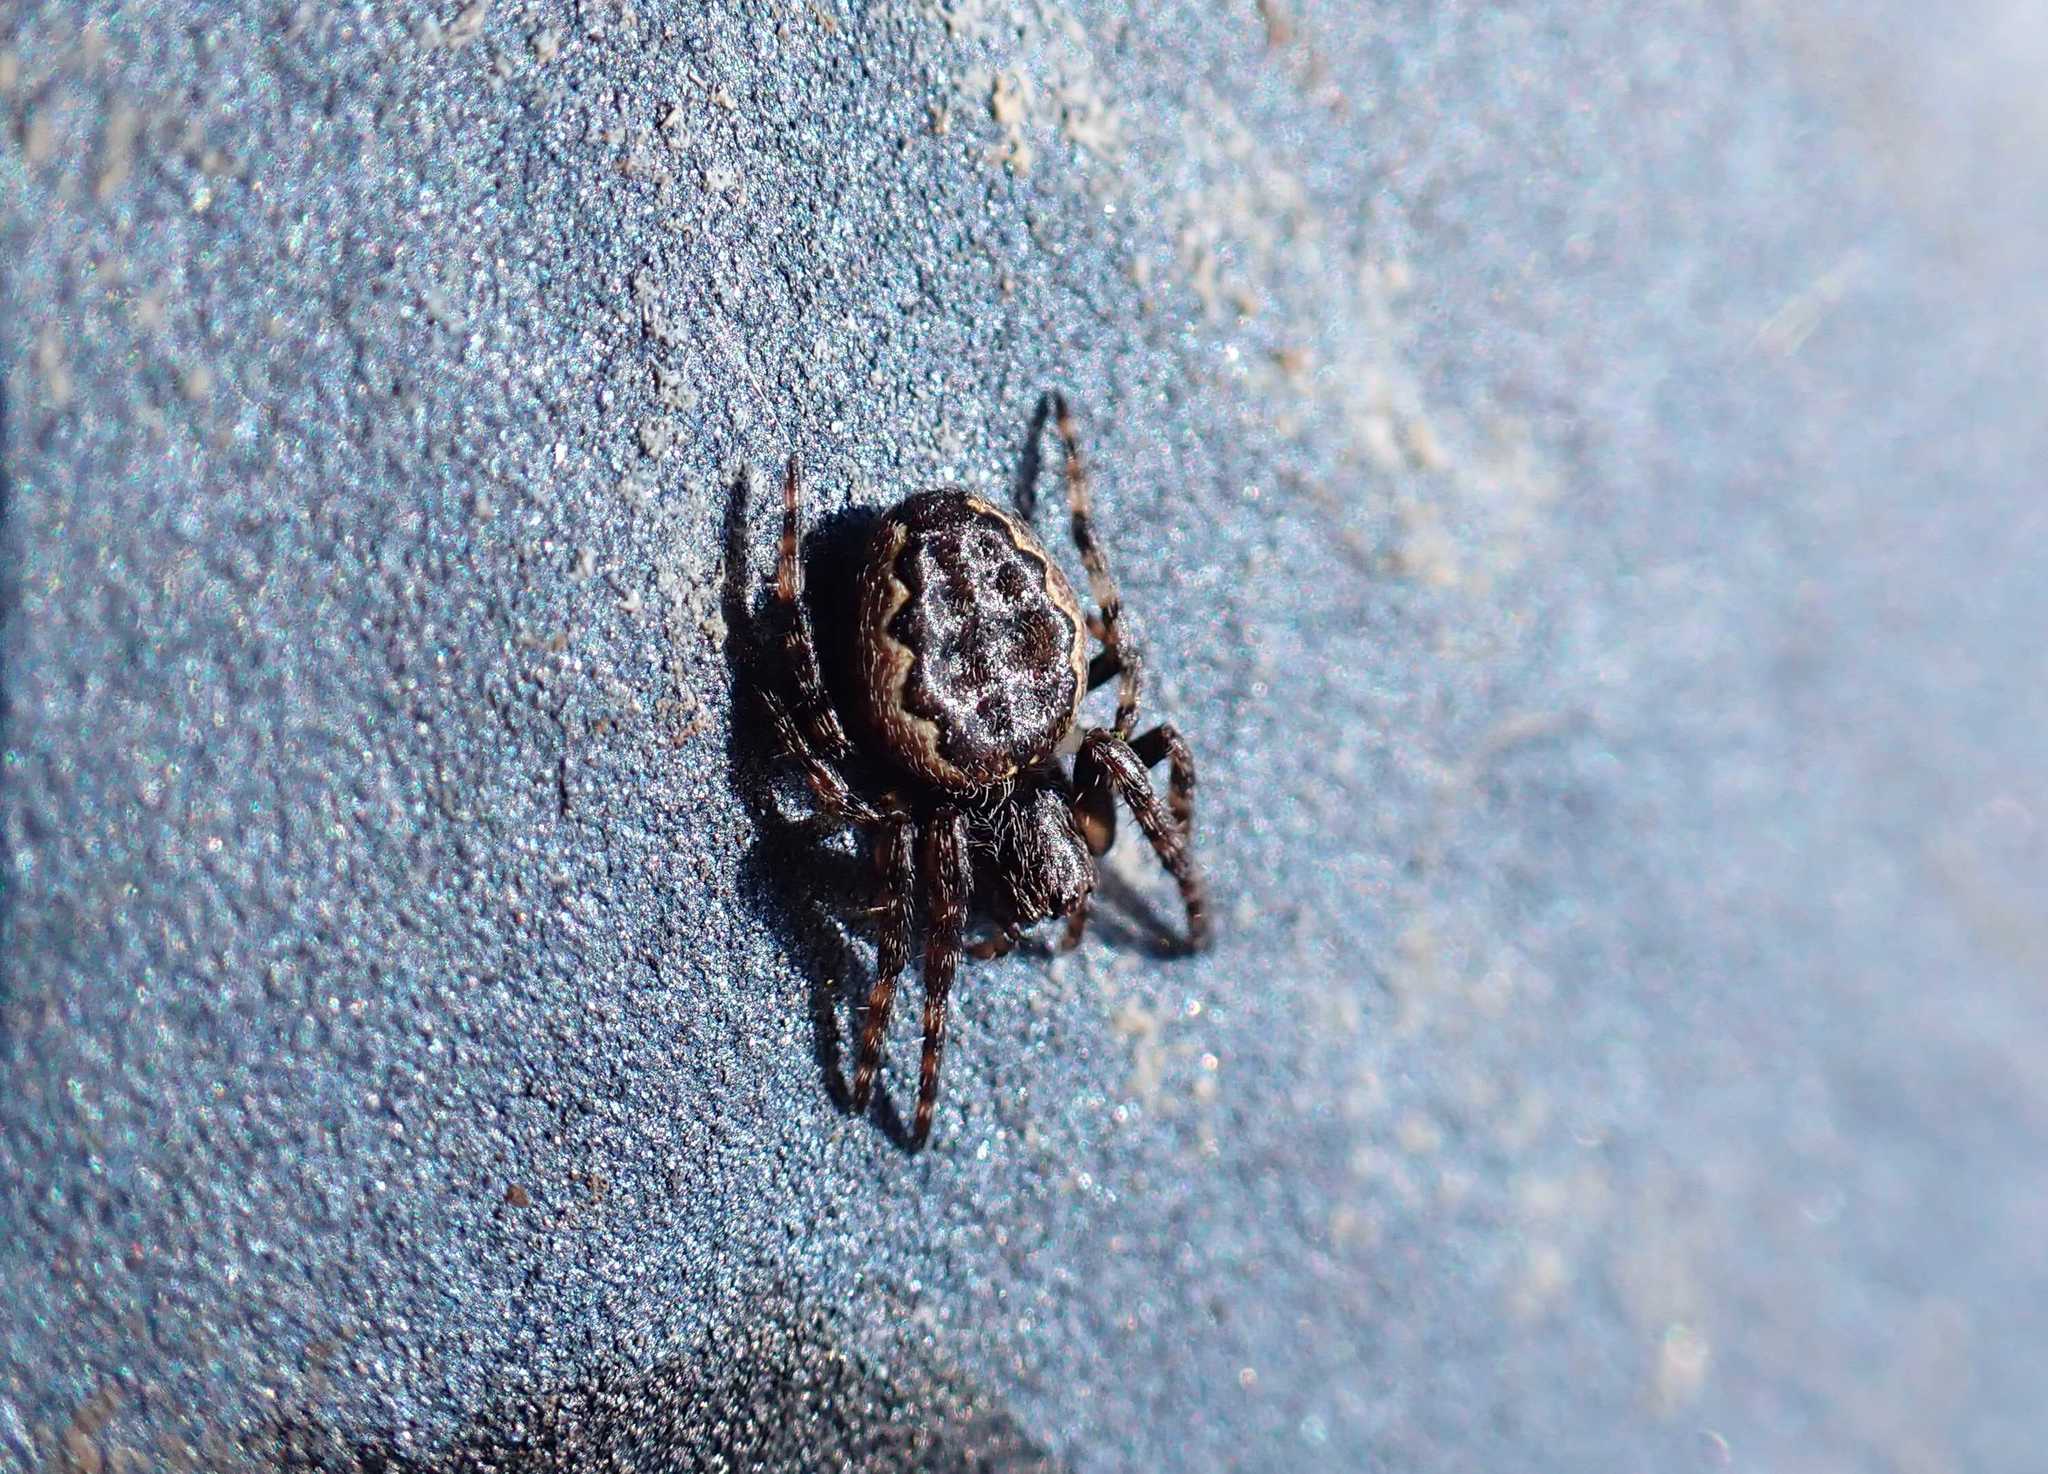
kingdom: Animalia
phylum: Arthropoda
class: Arachnida
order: Araneae
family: Araneidae
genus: Nuctenea
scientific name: Nuctenea umbratica
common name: Toad spider
